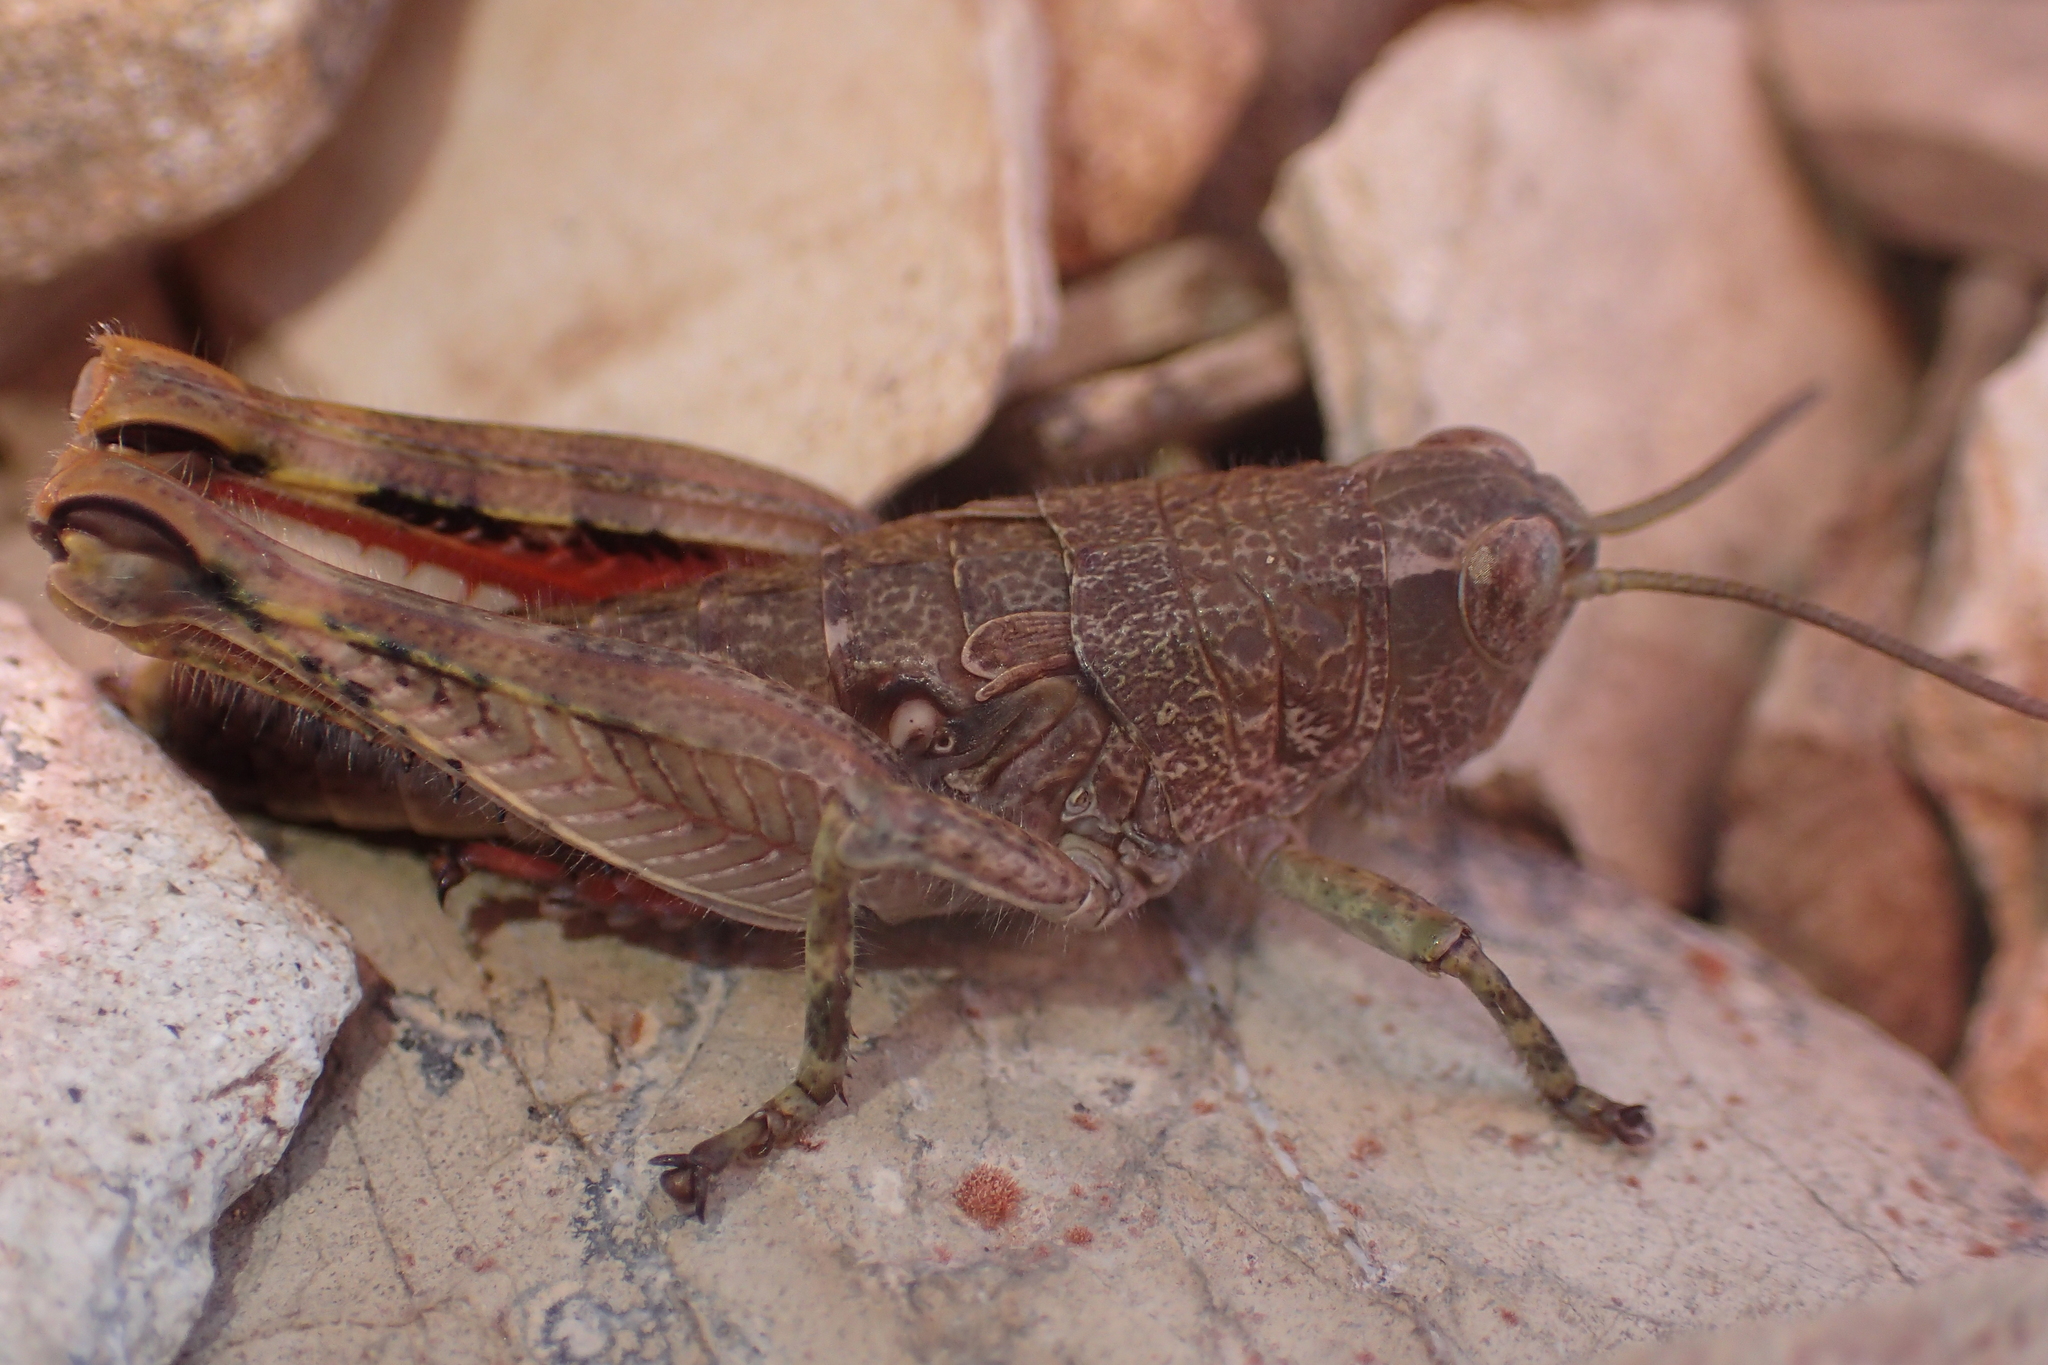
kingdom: Animalia
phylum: Arthropoda
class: Insecta
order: Orthoptera
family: Acrididae
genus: Sigaus
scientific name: Sigaus
